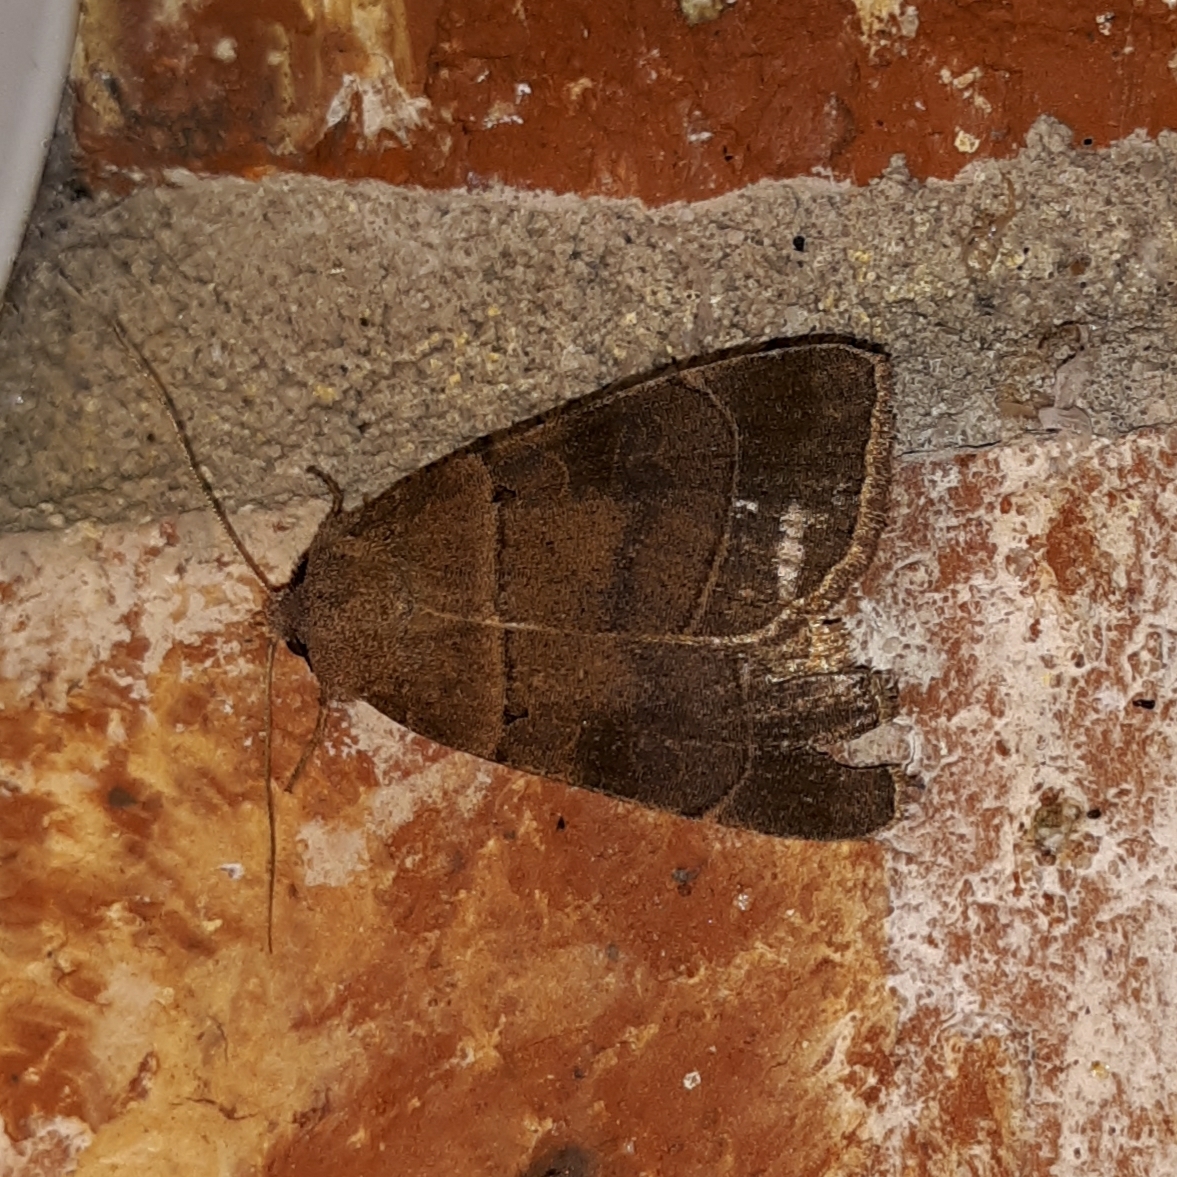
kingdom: Animalia
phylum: Arthropoda
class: Insecta
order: Lepidoptera
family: Noctuidae
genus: Agnorisma
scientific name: Agnorisma badinodis
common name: Pale-banded dart
